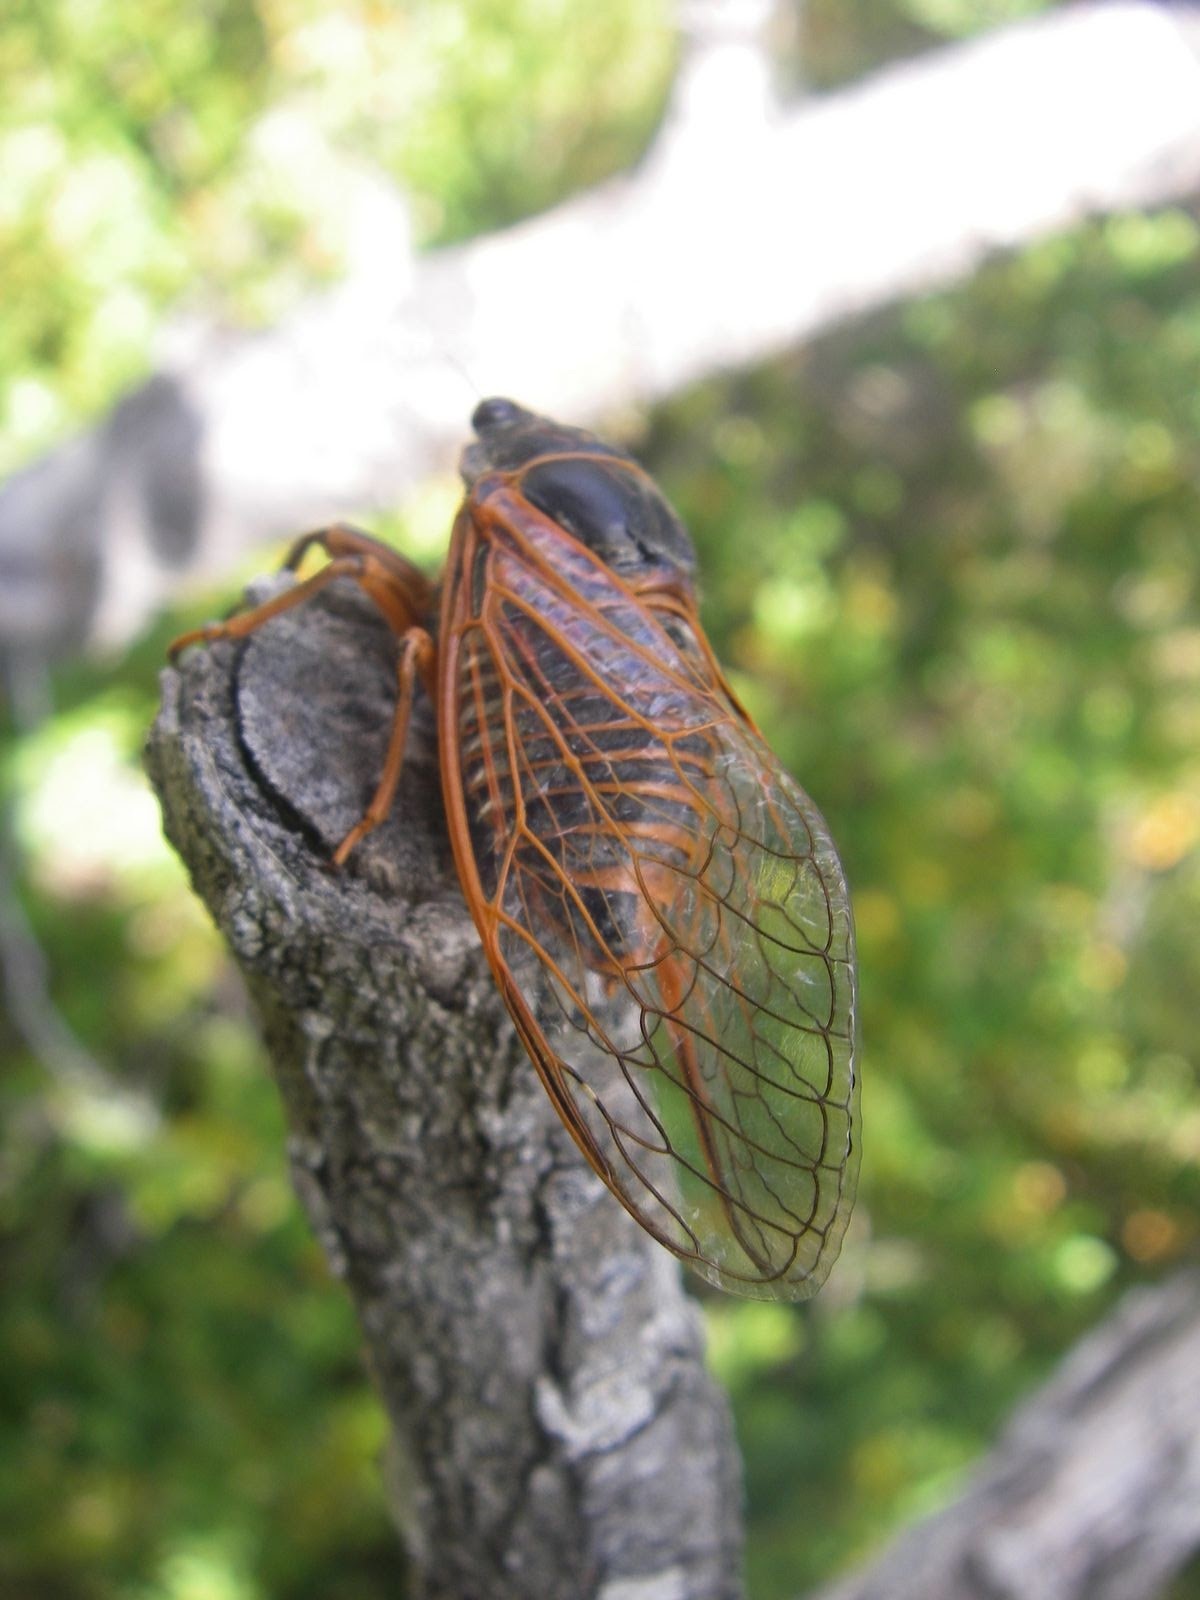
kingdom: Animalia
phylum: Arthropoda
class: Insecta
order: Hemiptera
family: Cicadidae
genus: Tibicina
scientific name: Tibicina haematodes
